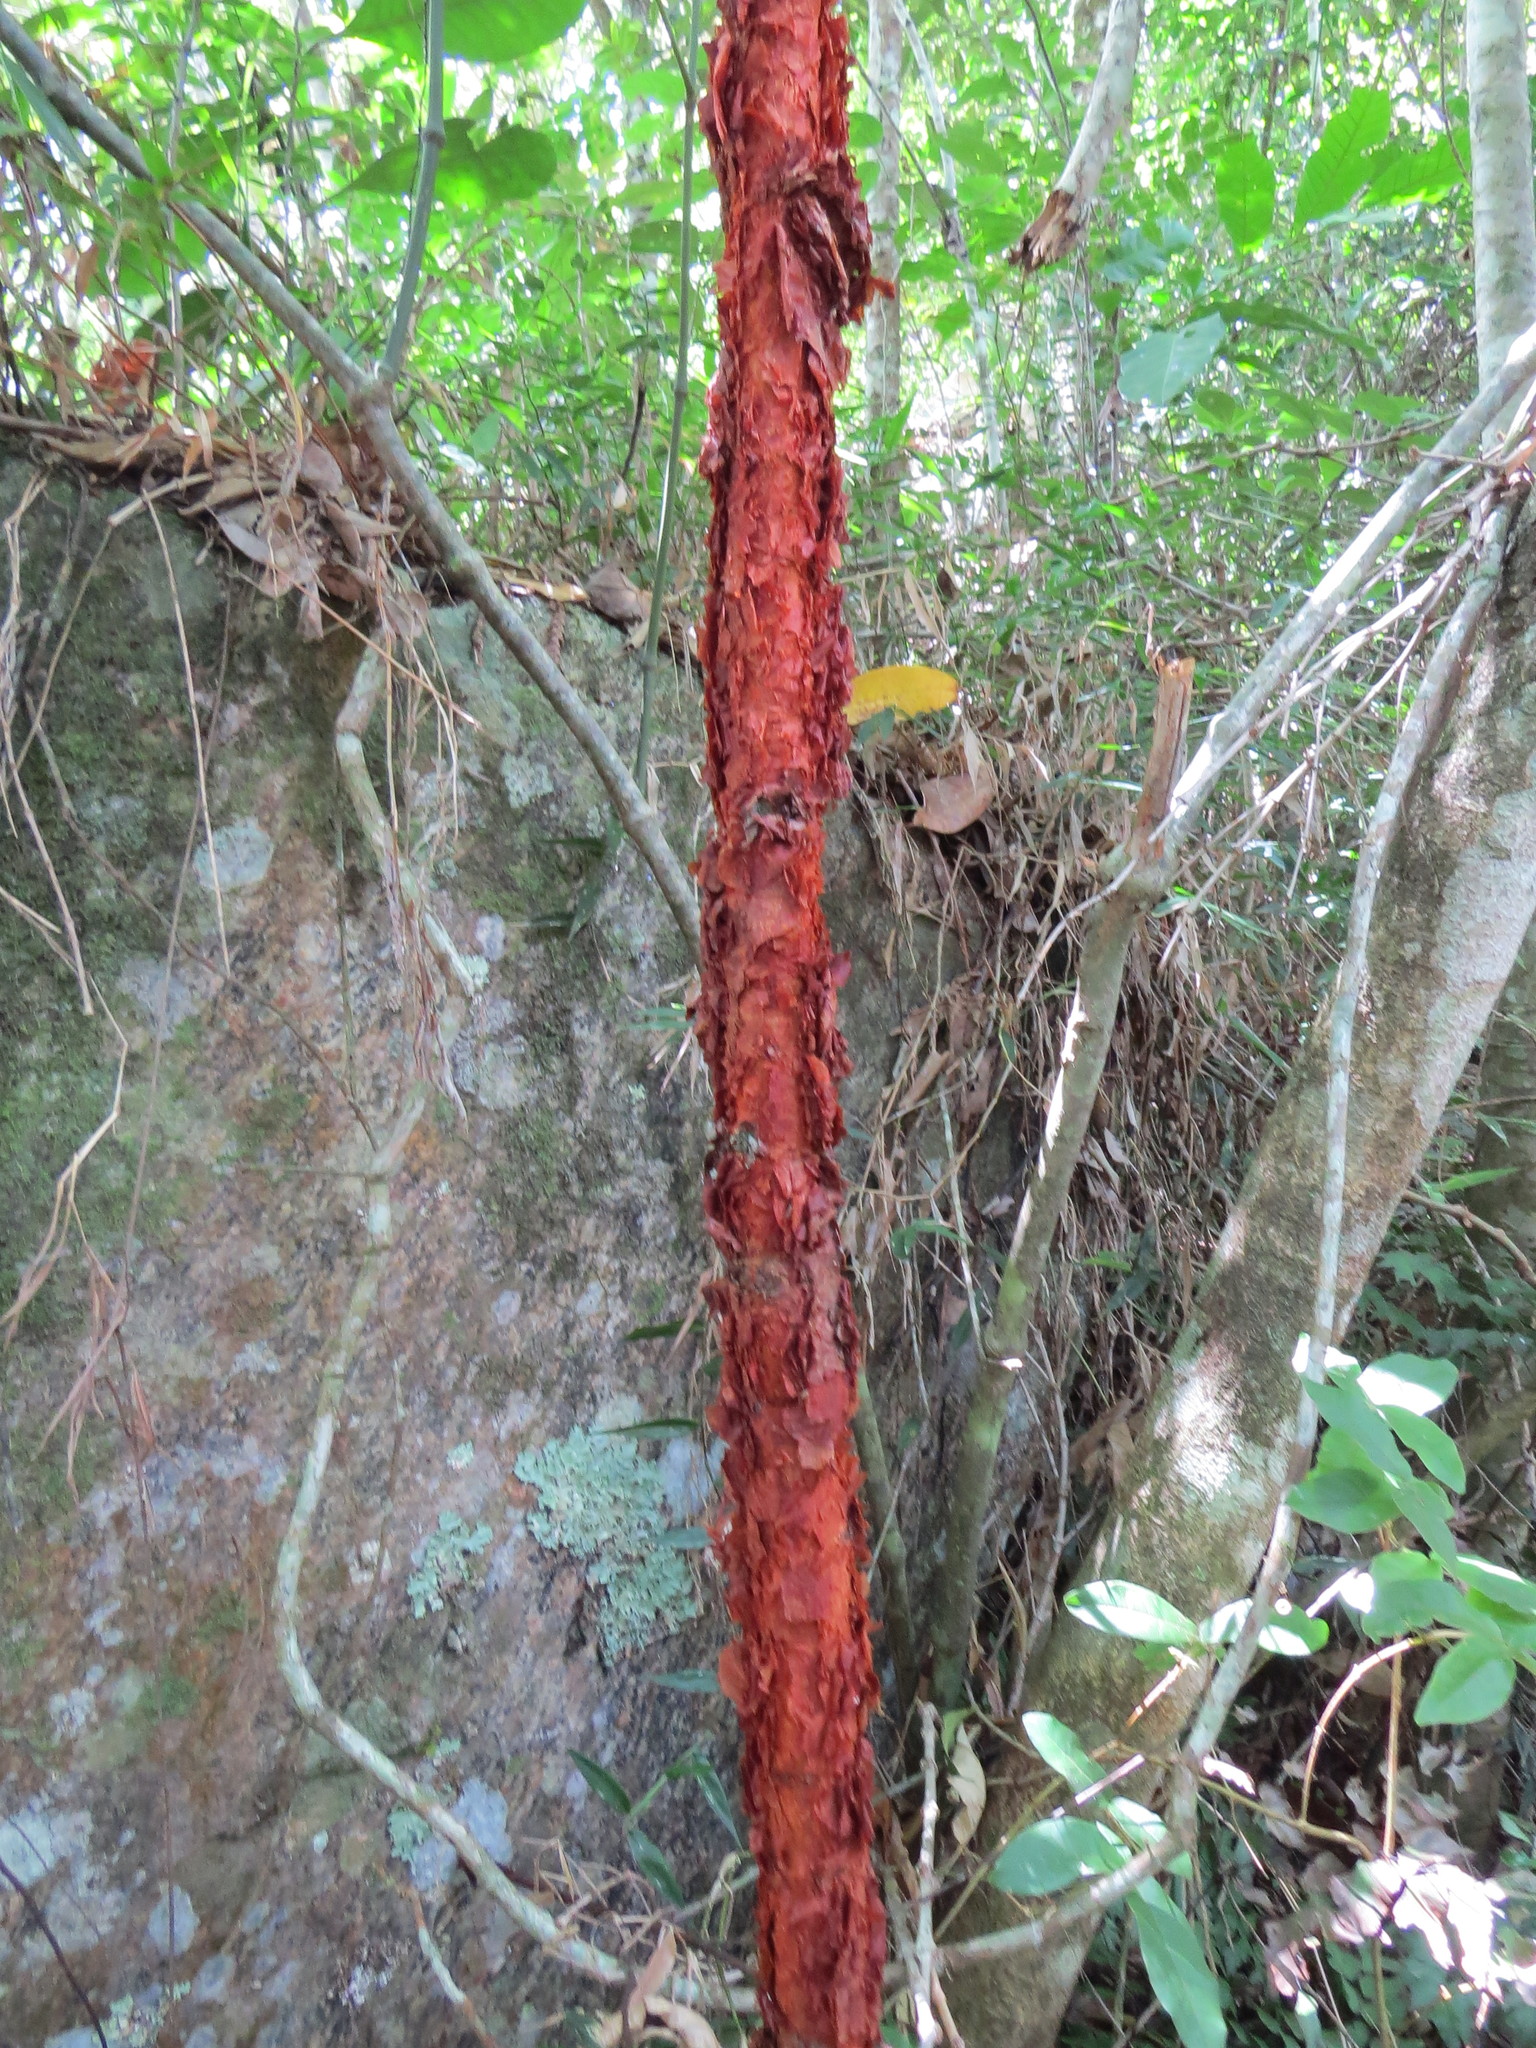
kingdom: Plantae
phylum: Tracheophyta
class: Magnoliopsida
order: Magnoliales
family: Annonaceae
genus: Xylopia
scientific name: Xylopia brasiliensis
